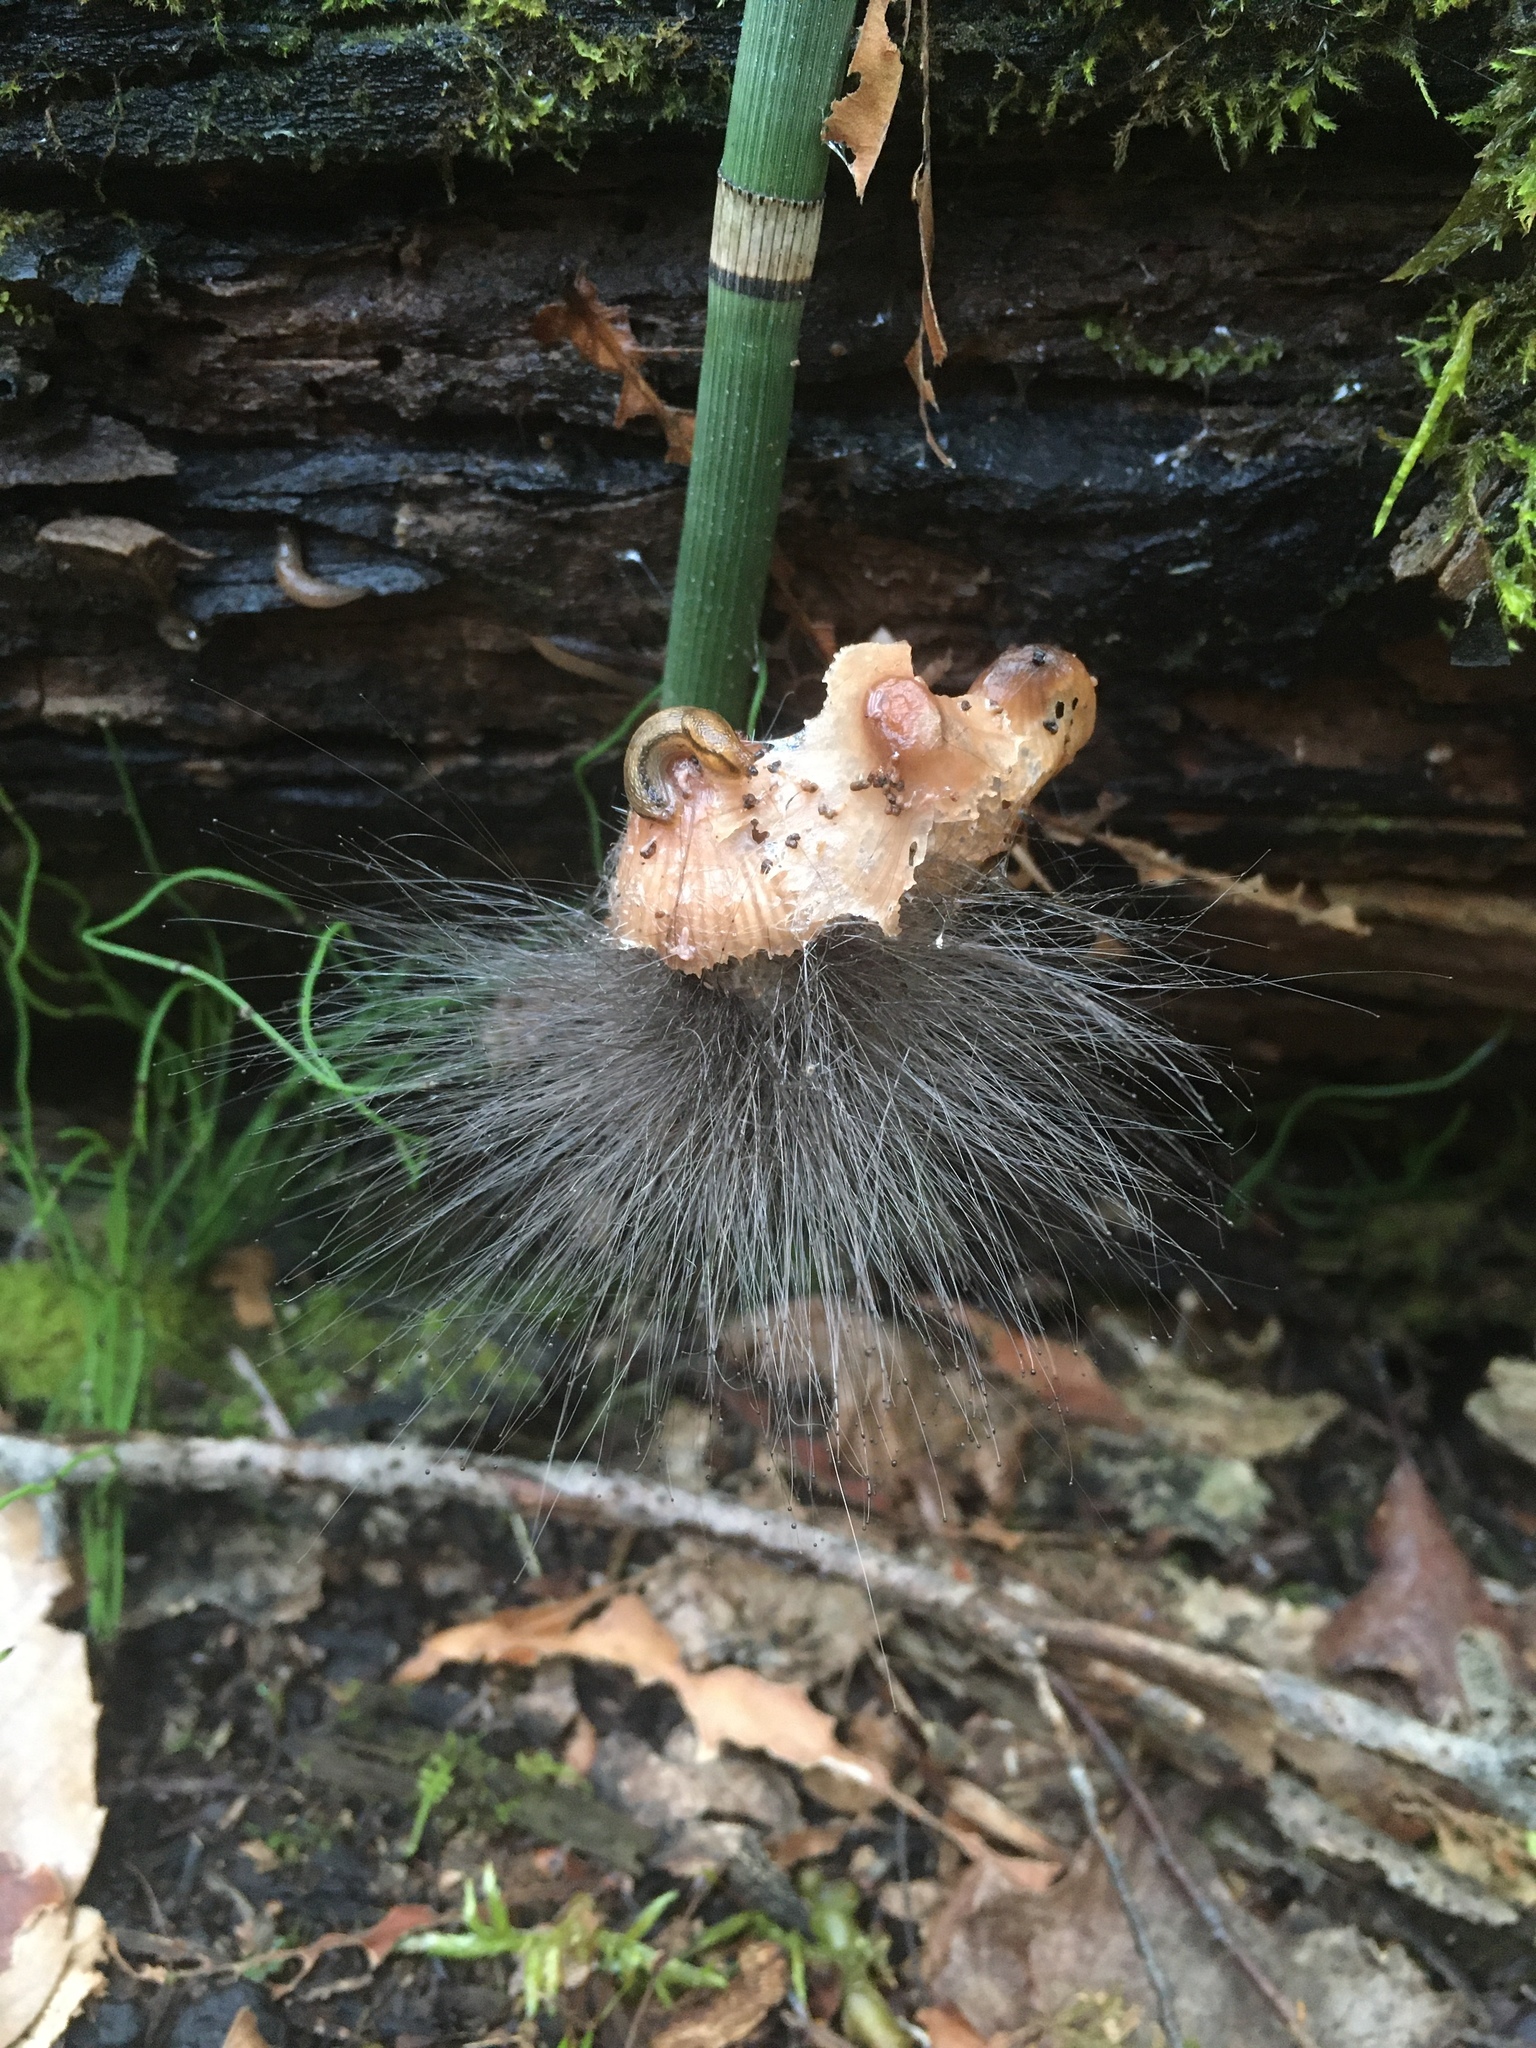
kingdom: Fungi
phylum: Mucoromycota
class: Mucoromycetes
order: Mucorales
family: Phycomycetaceae
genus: Spinellus
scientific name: Spinellus fusiger
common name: Bonnet mould
